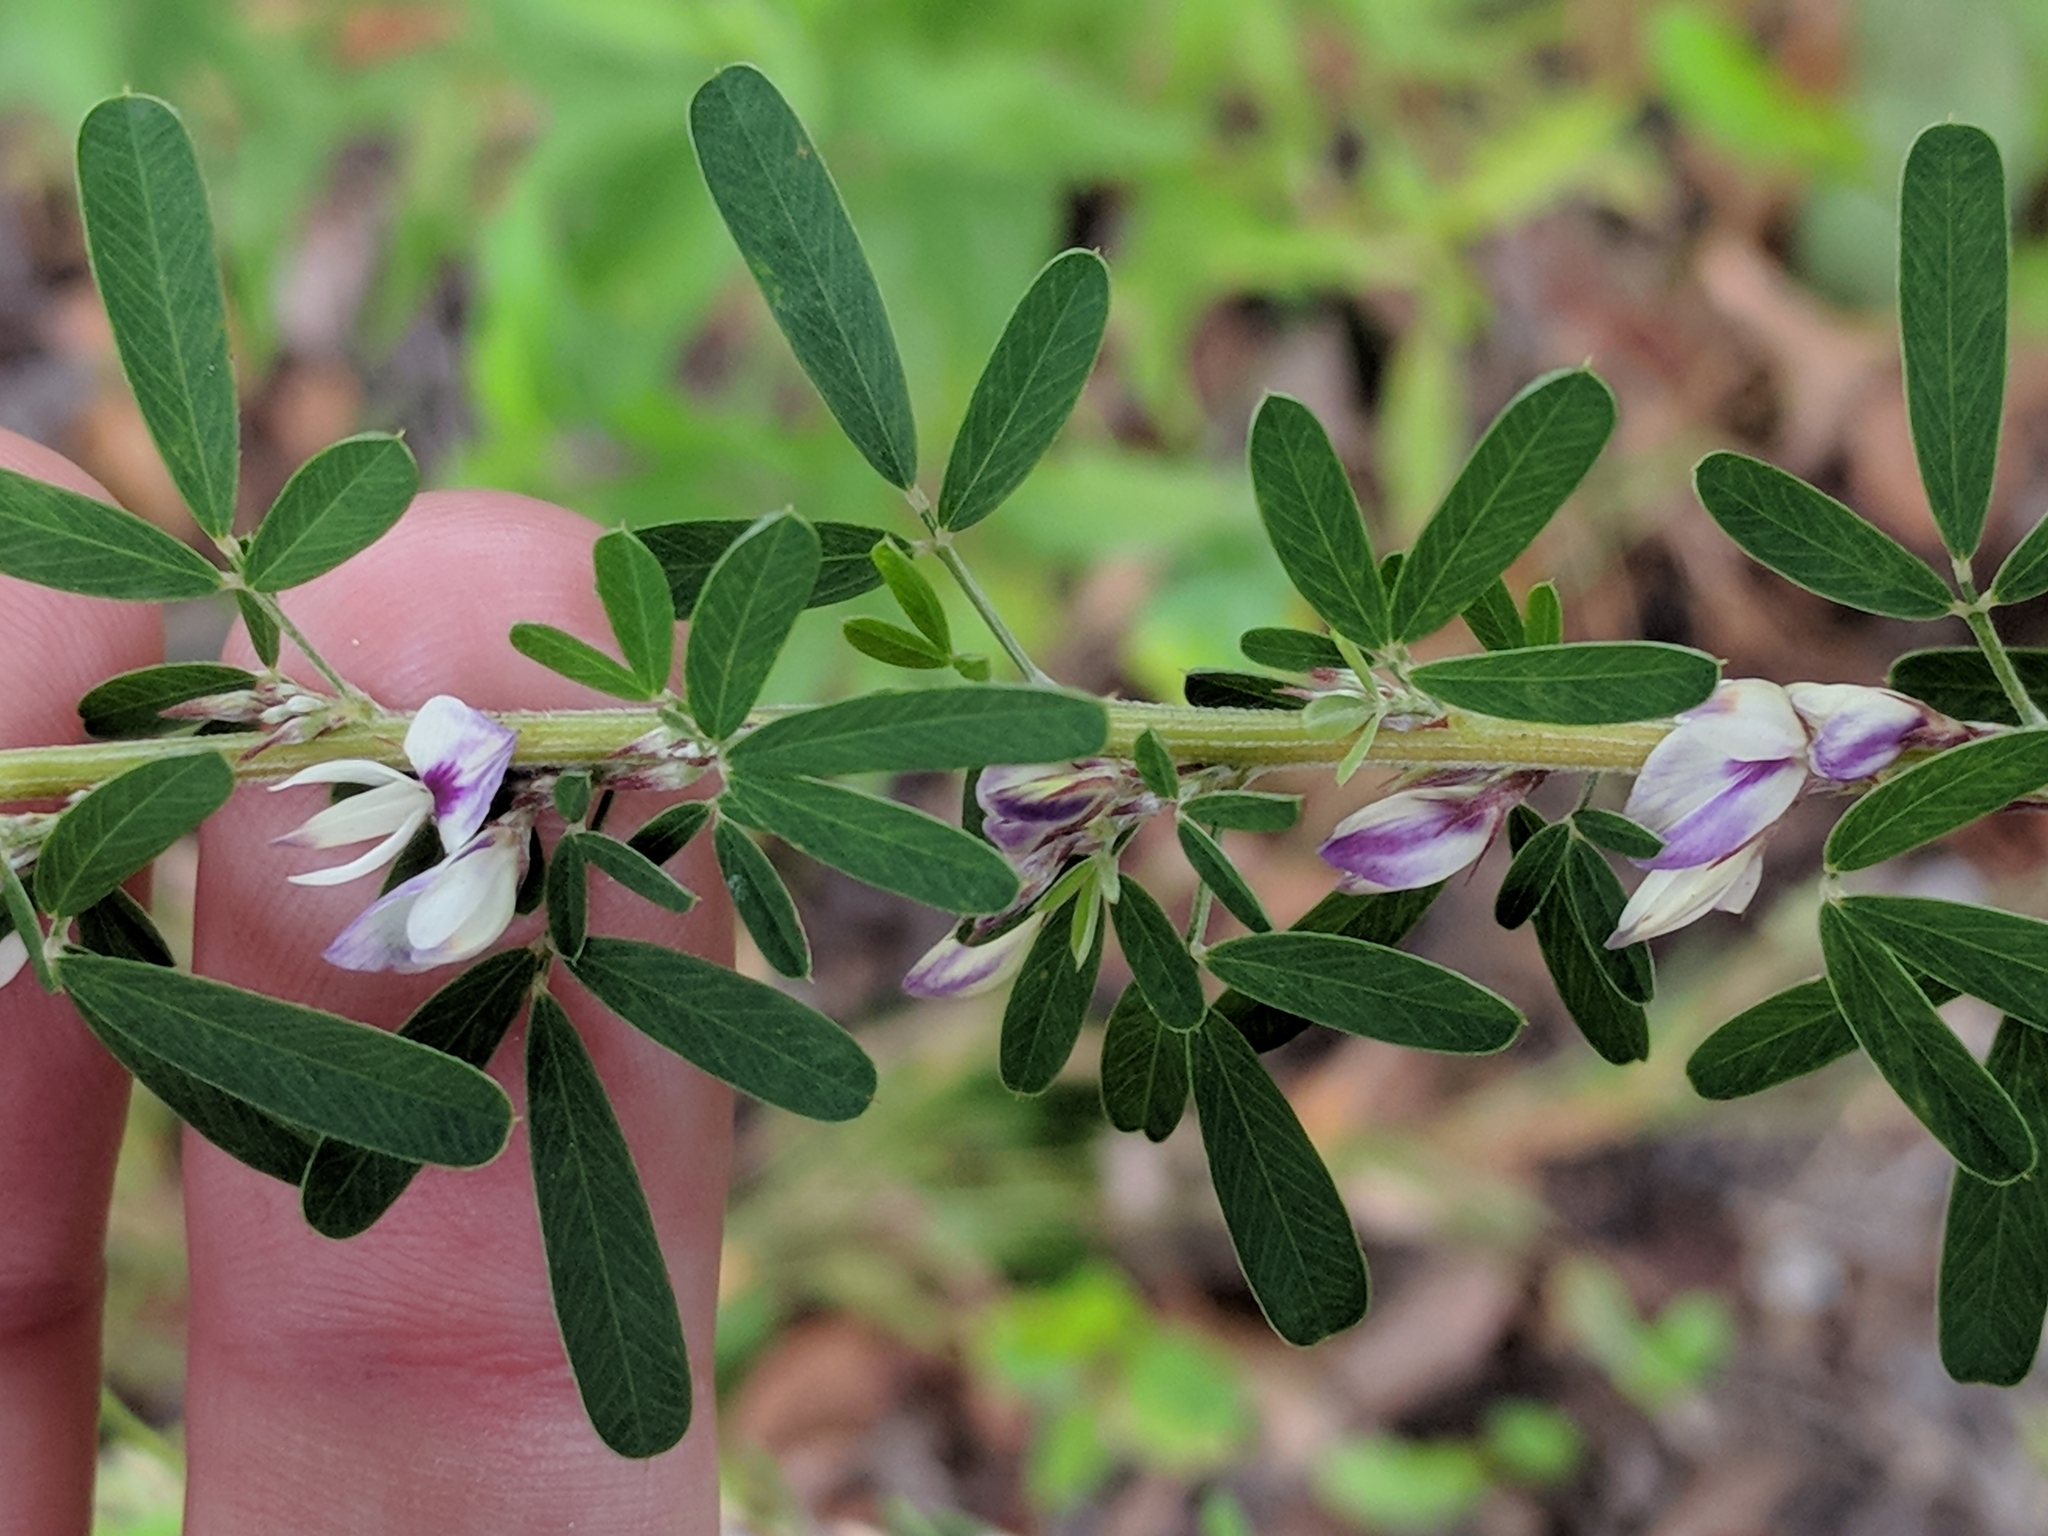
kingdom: Plantae
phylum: Tracheophyta
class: Magnoliopsida
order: Fabales
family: Fabaceae
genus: Lespedeza
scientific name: Lespedeza cuneata
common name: Chinese bush-clover
